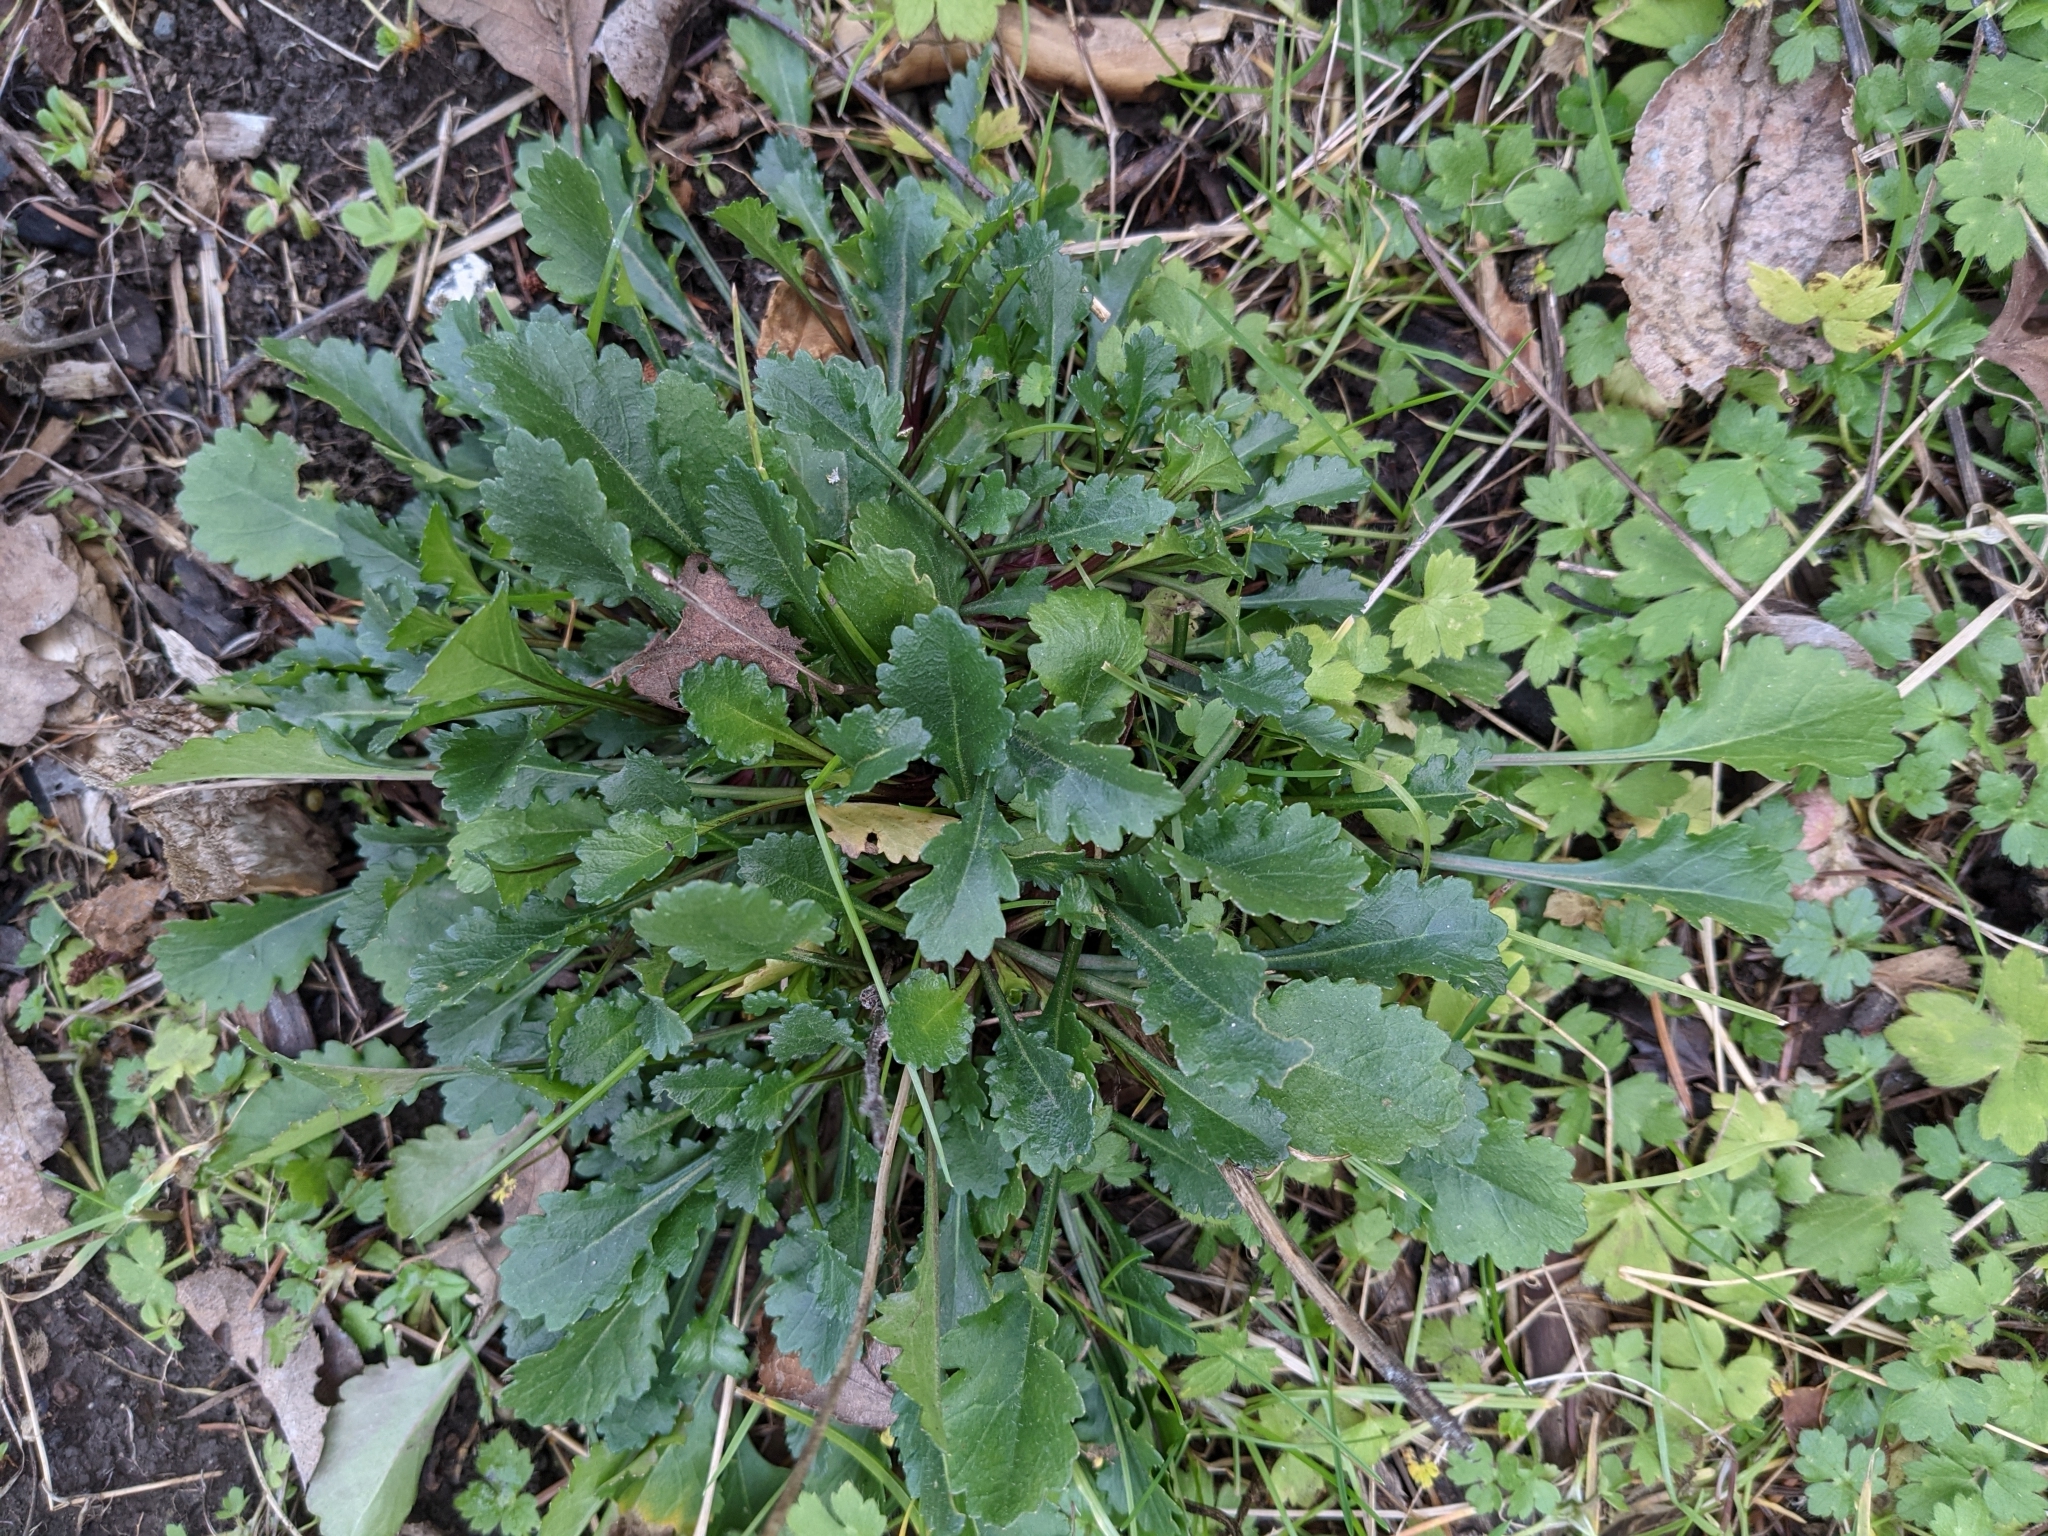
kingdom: Plantae
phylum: Tracheophyta
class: Magnoliopsida
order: Asterales
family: Asteraceae
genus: Leucanthemum
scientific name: Leucanthemum vulgare
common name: Oxeye daisy
